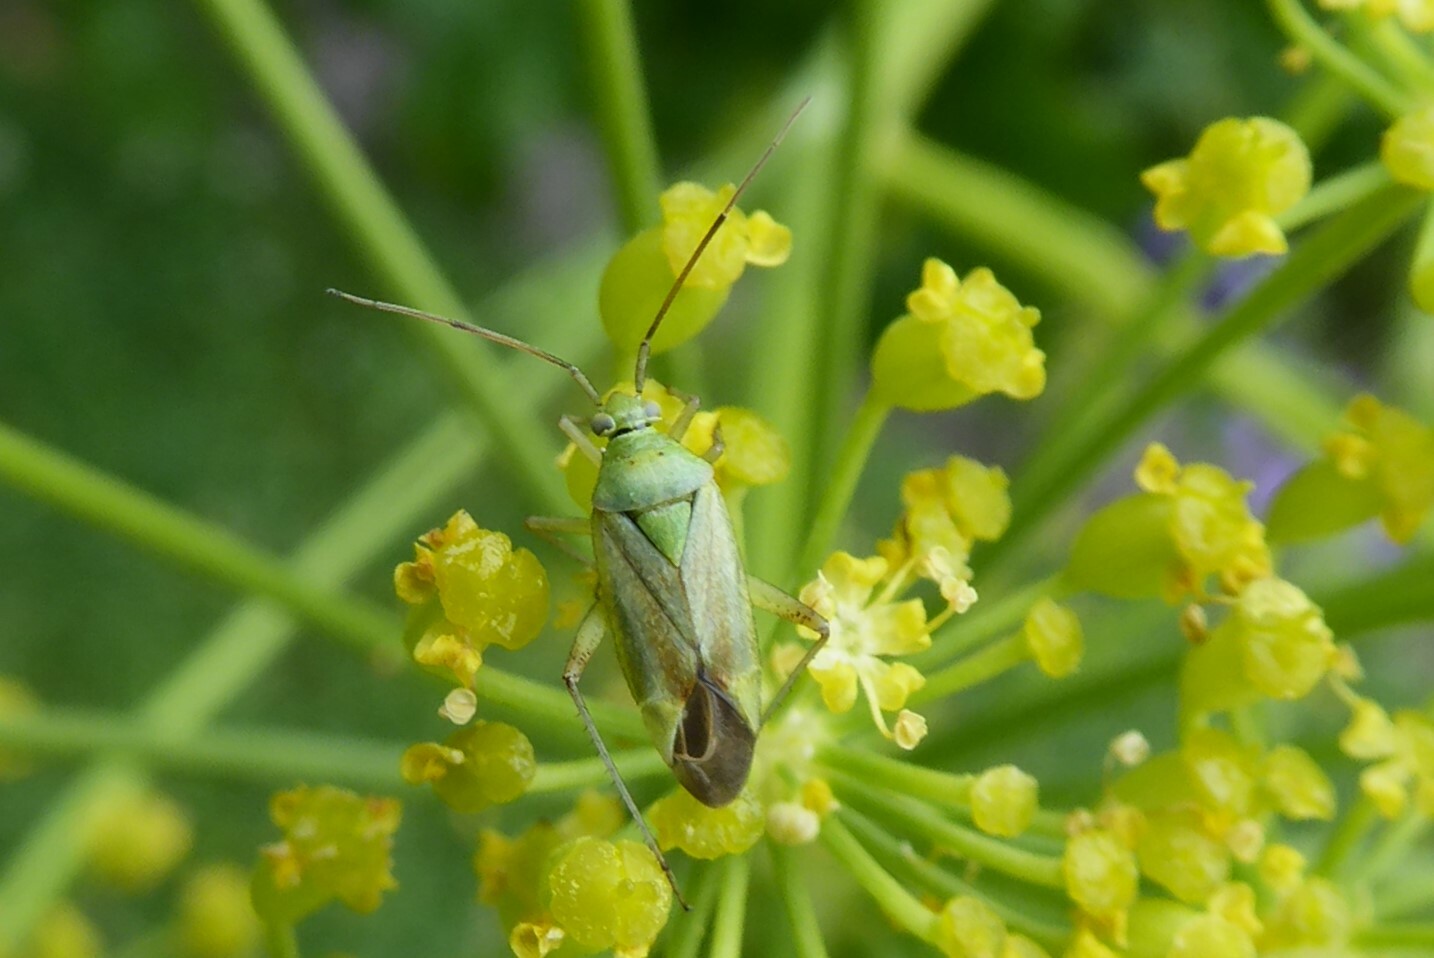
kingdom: Animalia
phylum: Arthropoda
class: Insecta
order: Hemiptera
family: Miridae
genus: Closterotomus
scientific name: Closterotomus norvegicus
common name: Plant bug
